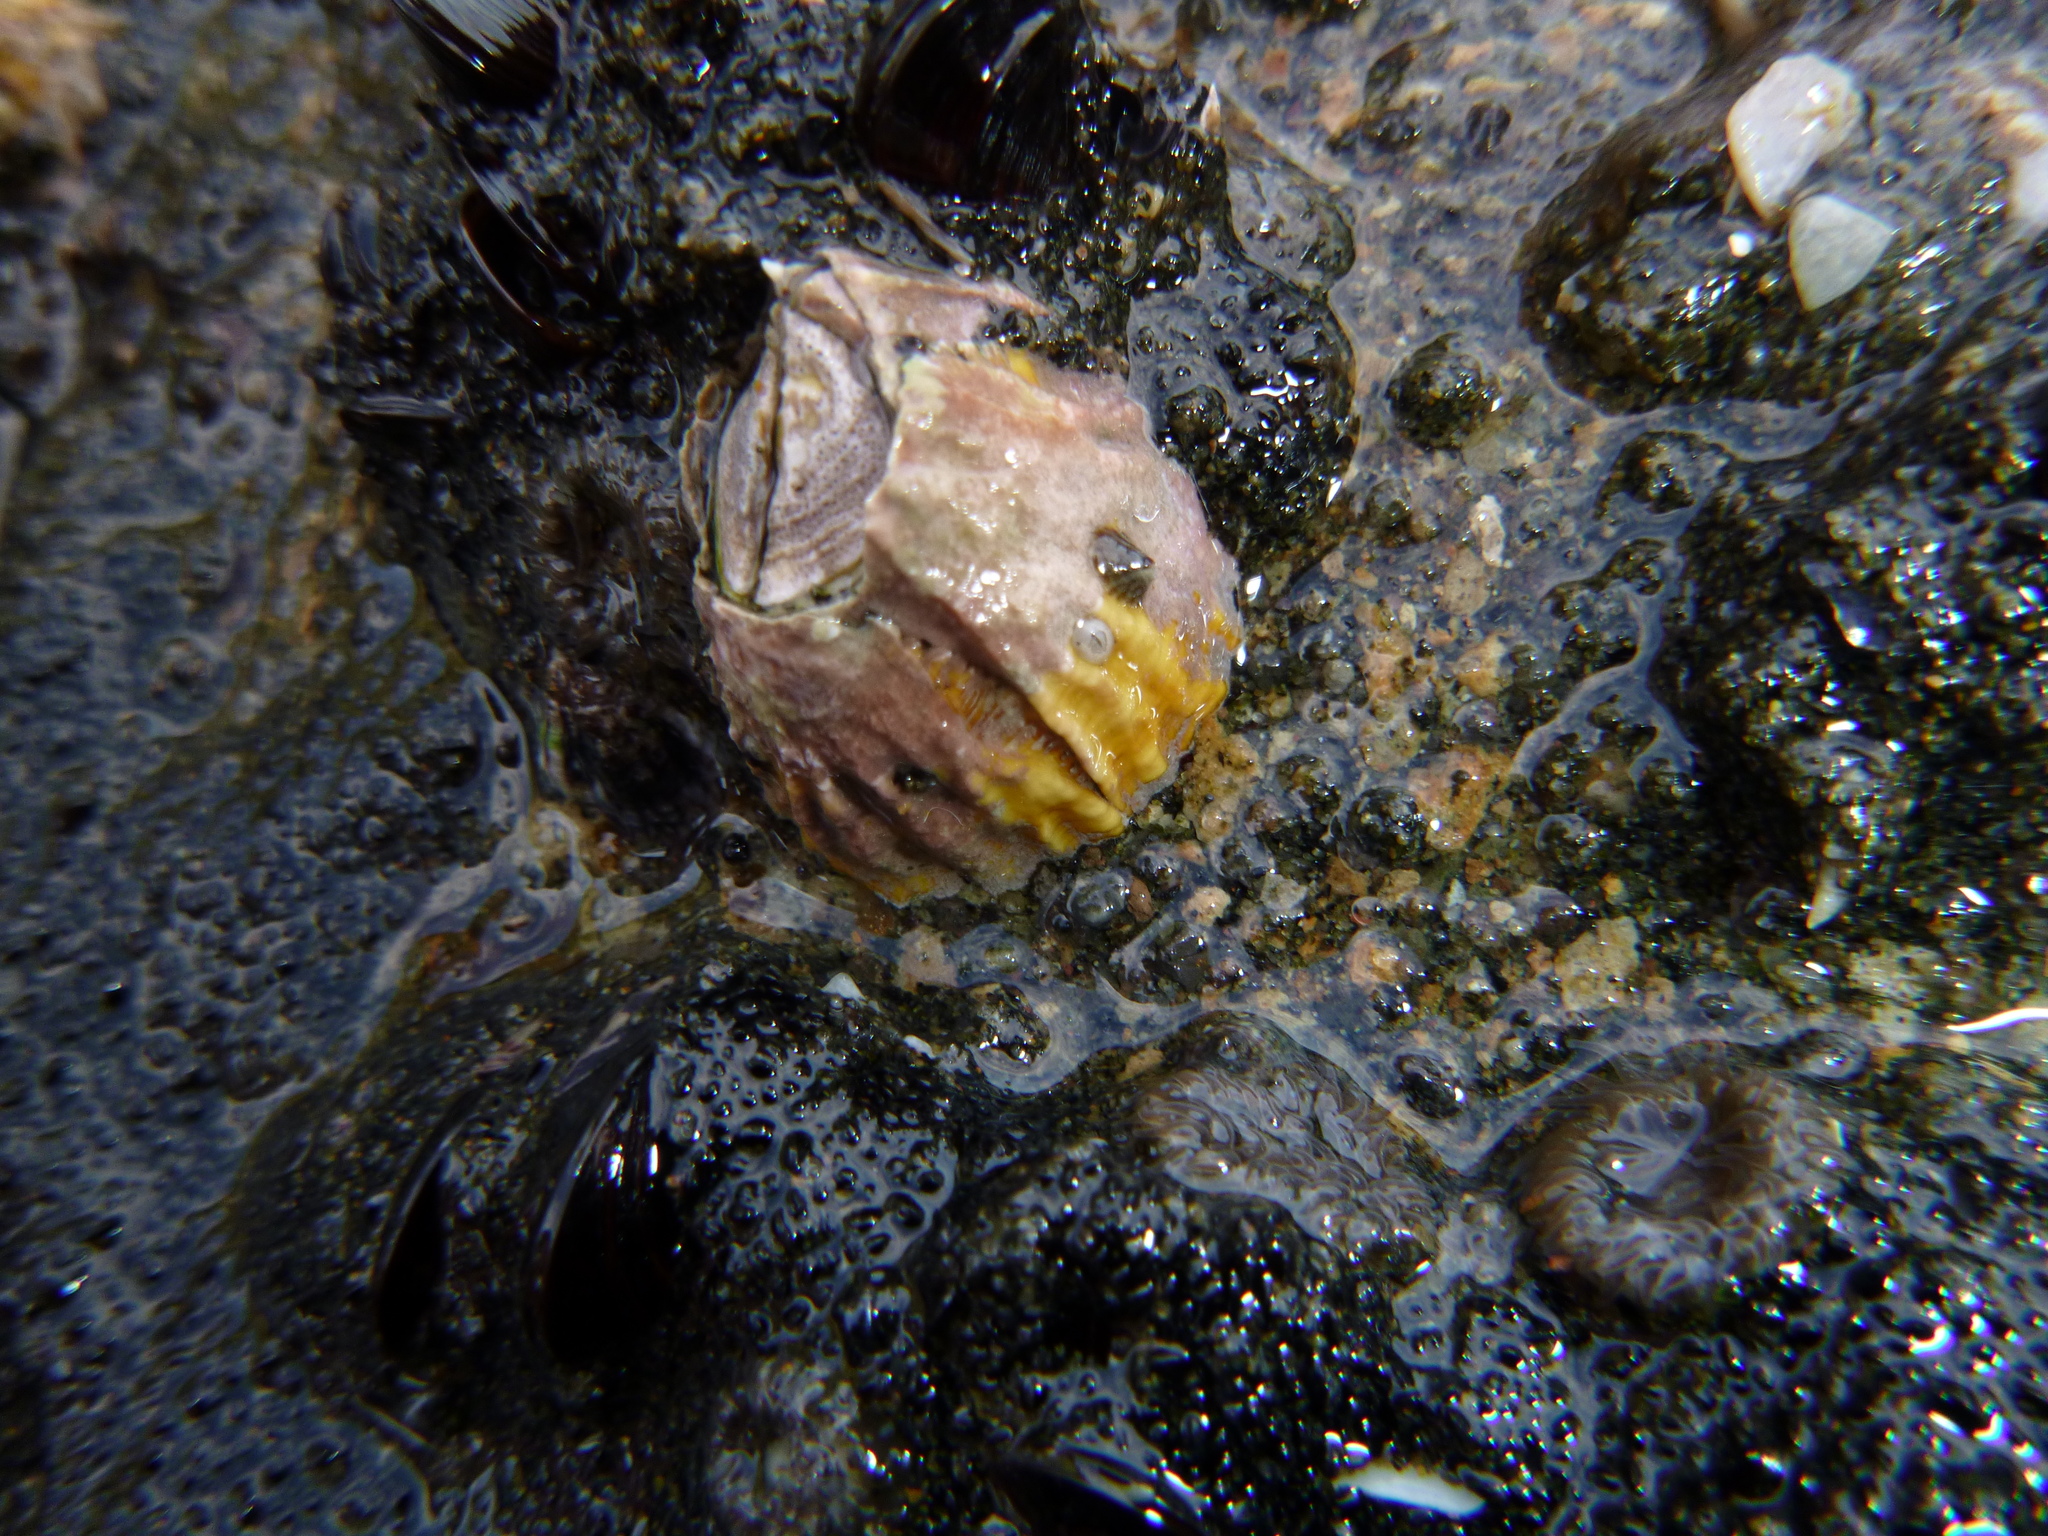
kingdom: Animalia
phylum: Arthropoda
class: Maxillopoda
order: Sessilia
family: Tetraclitidae
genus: Epopella
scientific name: Epopella plicata
